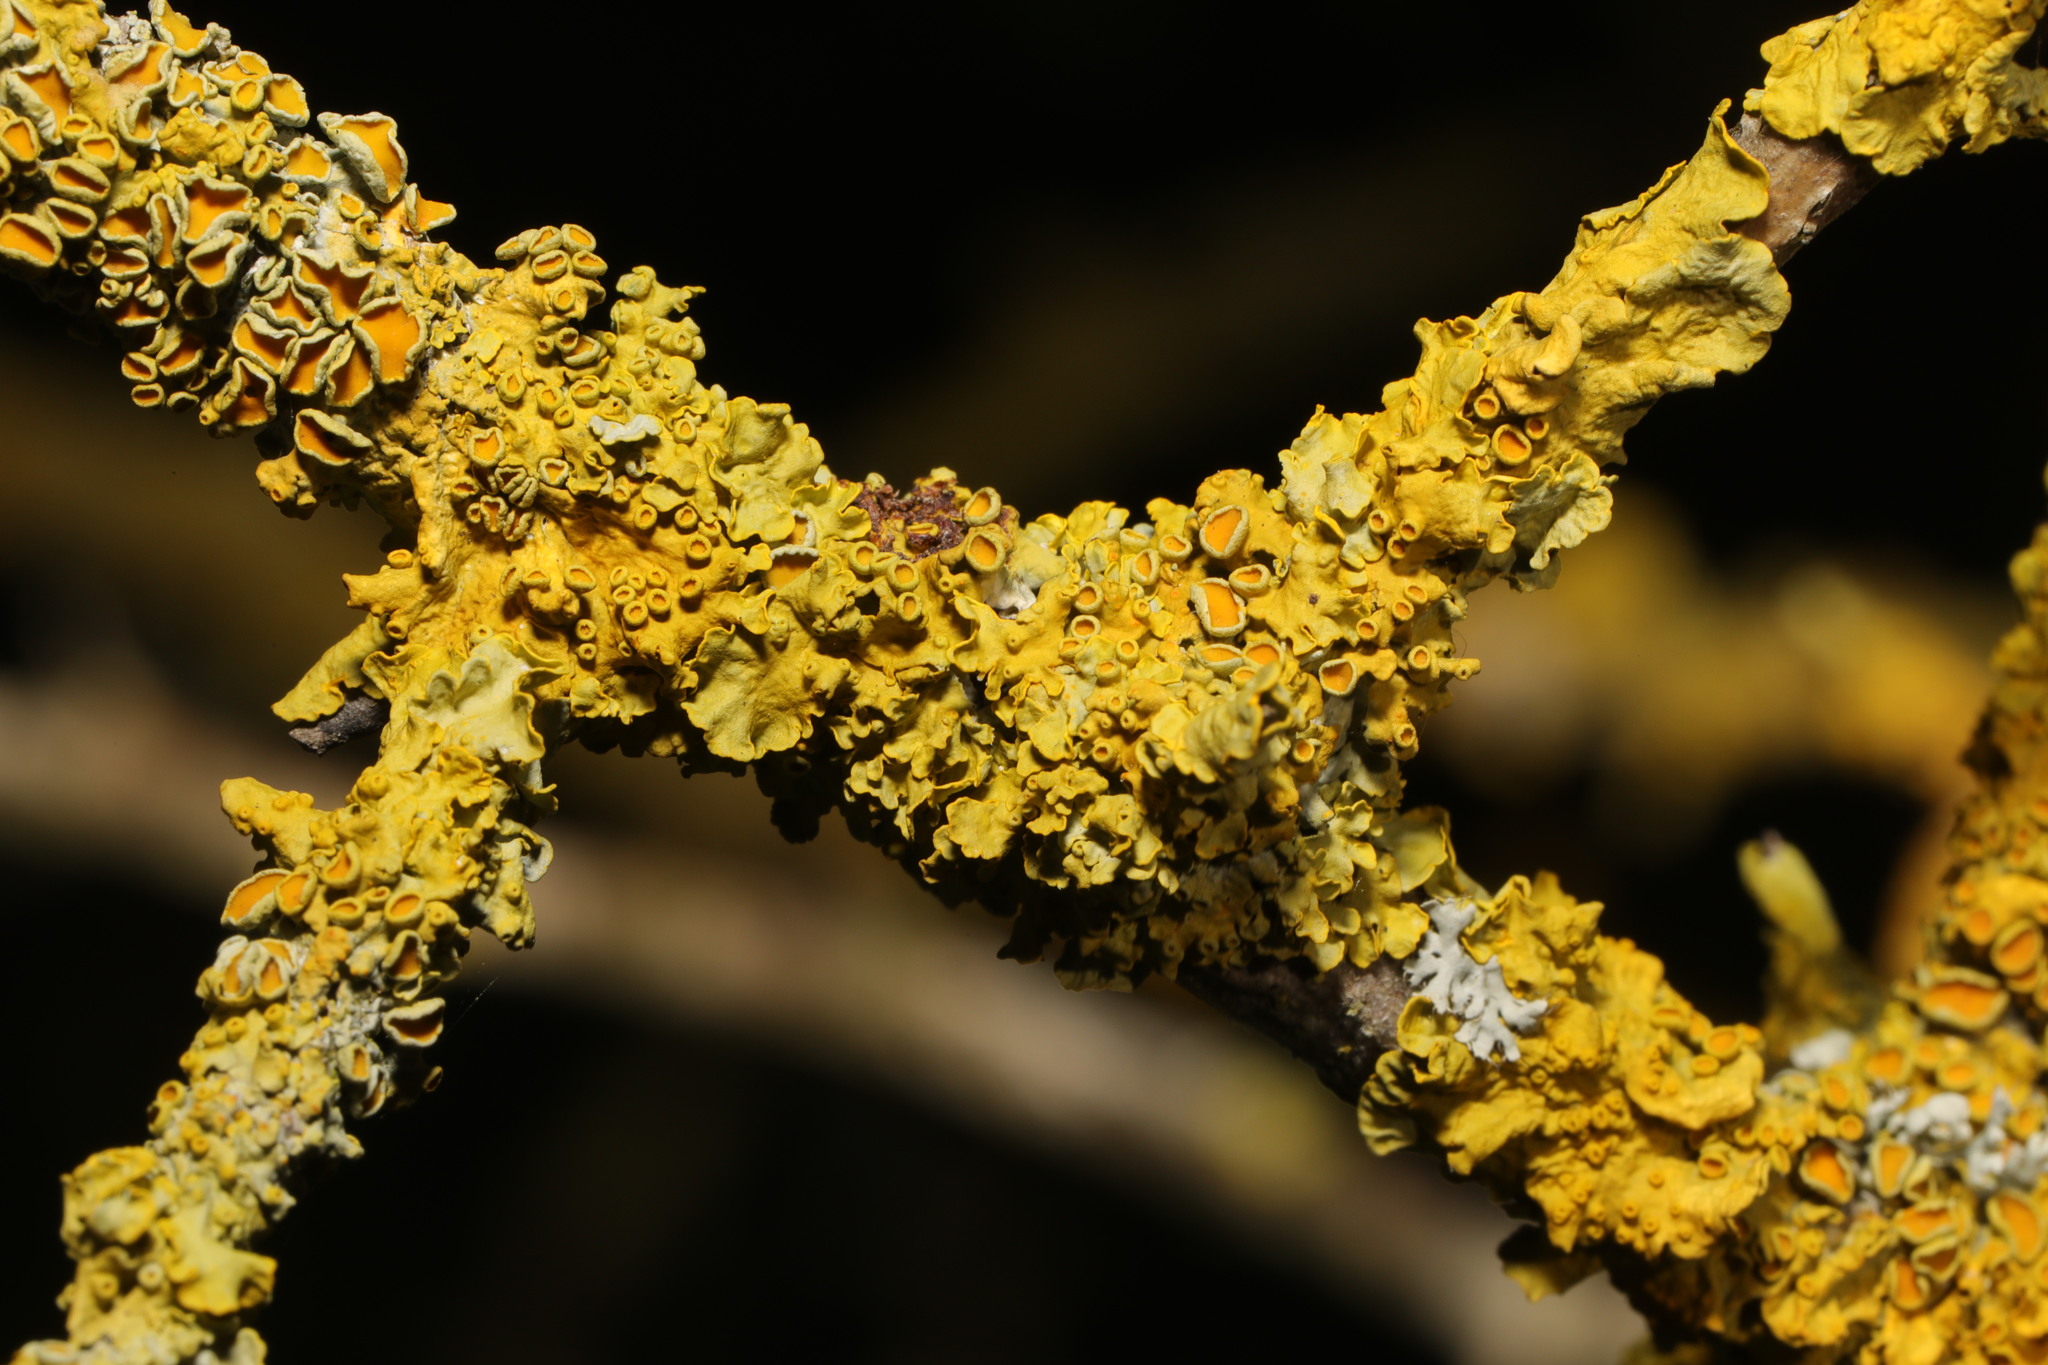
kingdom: Fungi
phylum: Ascomycota
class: Lecanoromycetes
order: Teloschistales
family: Teloschistaceae
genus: Xanthoria
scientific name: Xanthoria parietina
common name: Common orange lichen
